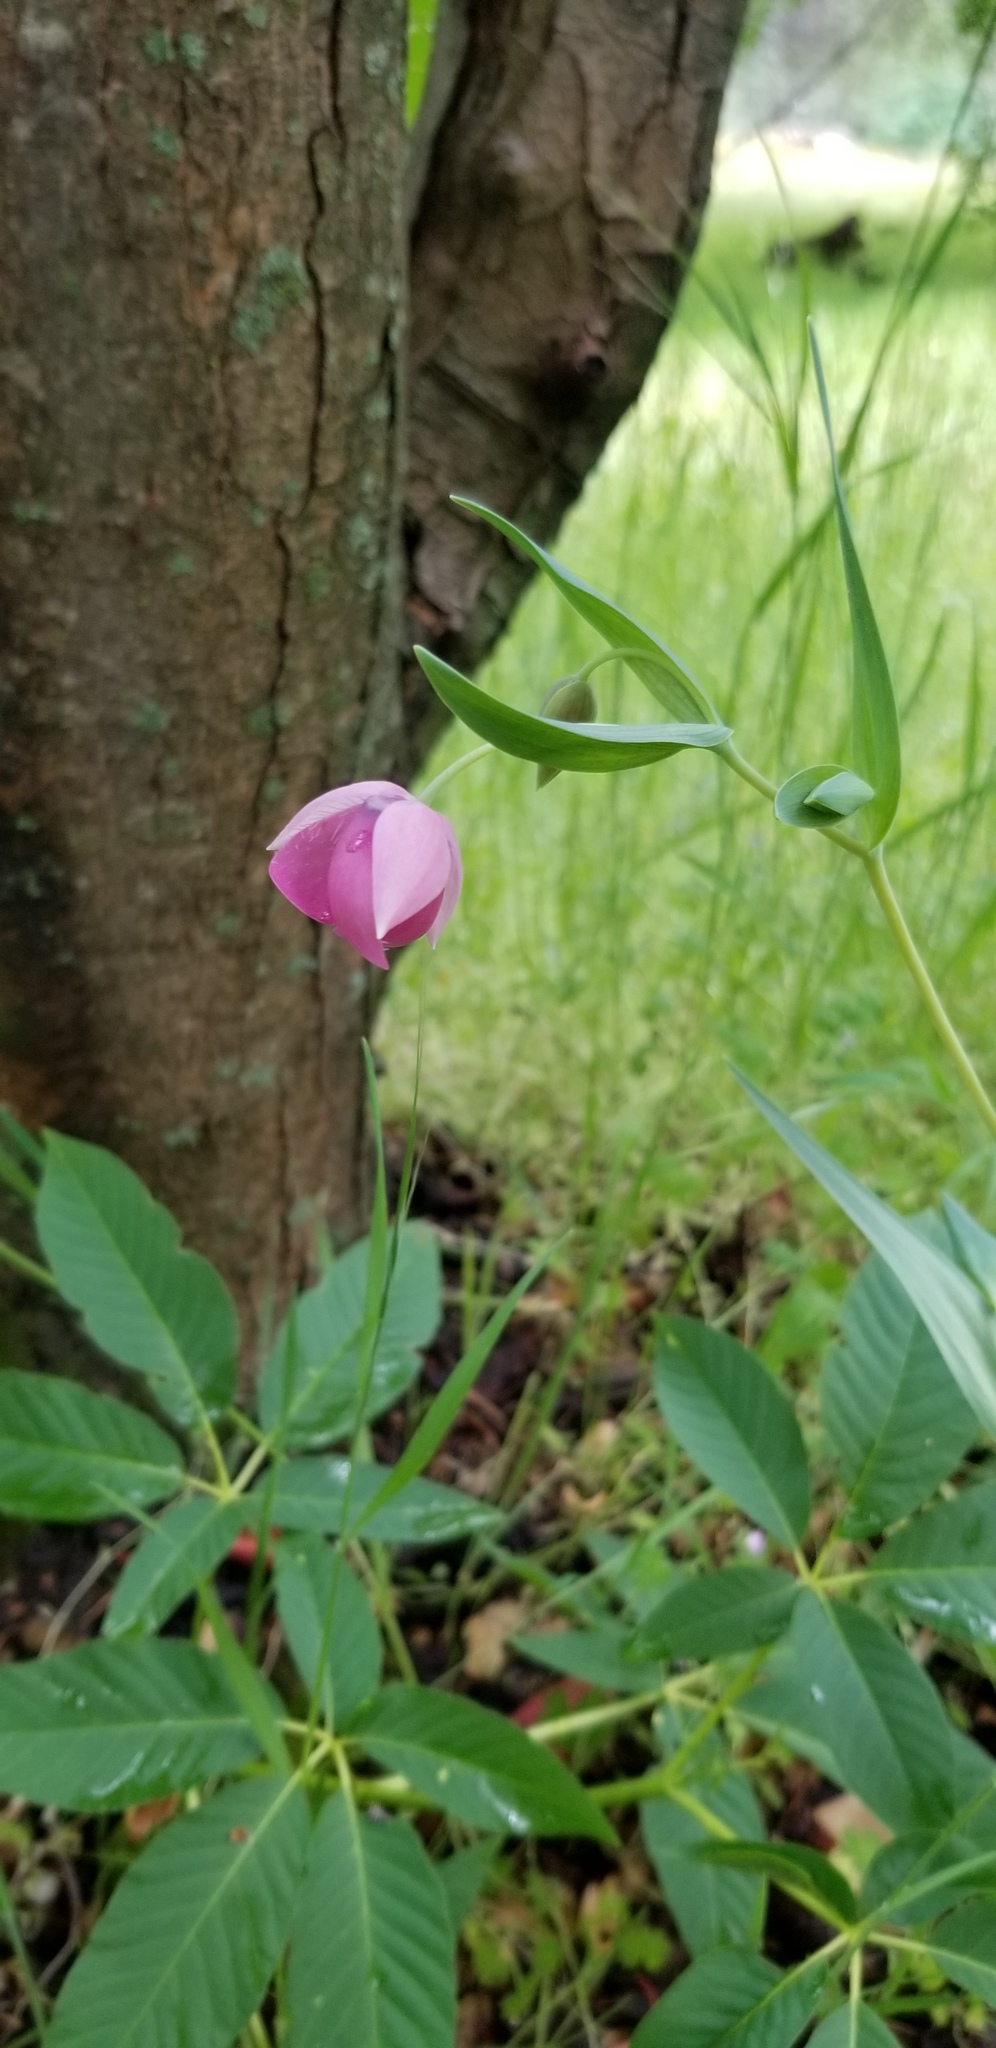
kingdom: Plantae
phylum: Tracheophyta
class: Liliopsida
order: Liliales
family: Liliaceae
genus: Calochortus
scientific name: Calochortus amoenus
